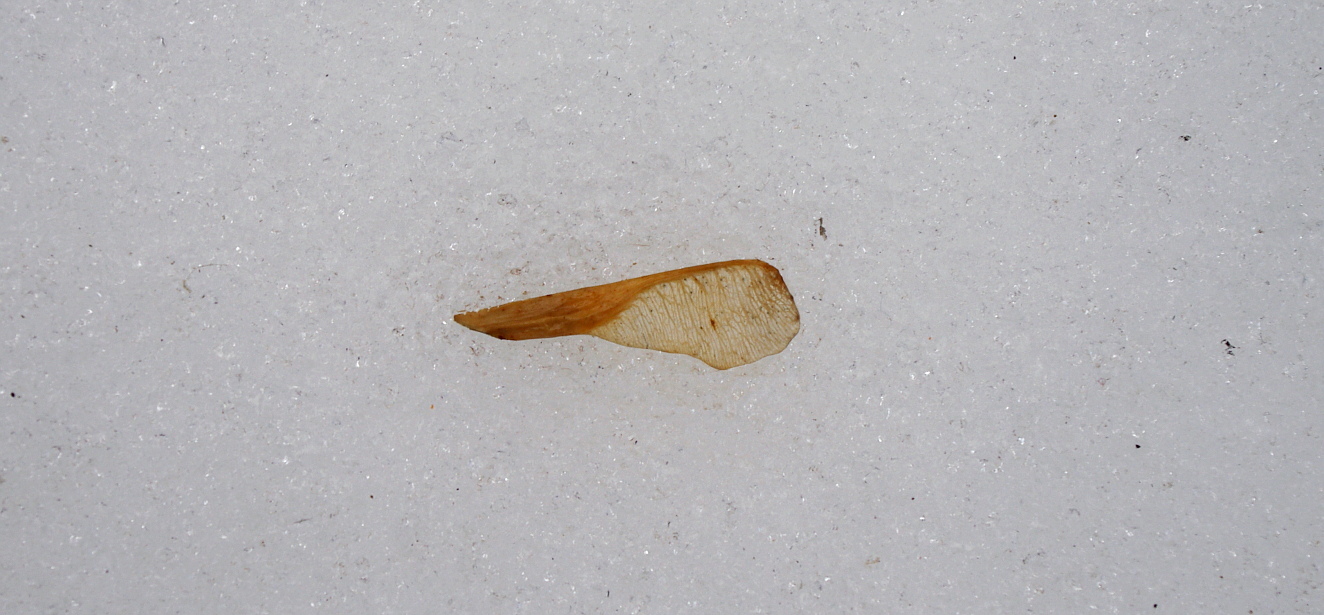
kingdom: Plantae
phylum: Tracheophyta
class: Magnoliopsida
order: Sapindales
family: Sapindaceae
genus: Acer
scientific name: Acer negundo
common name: Ashleaf maple
